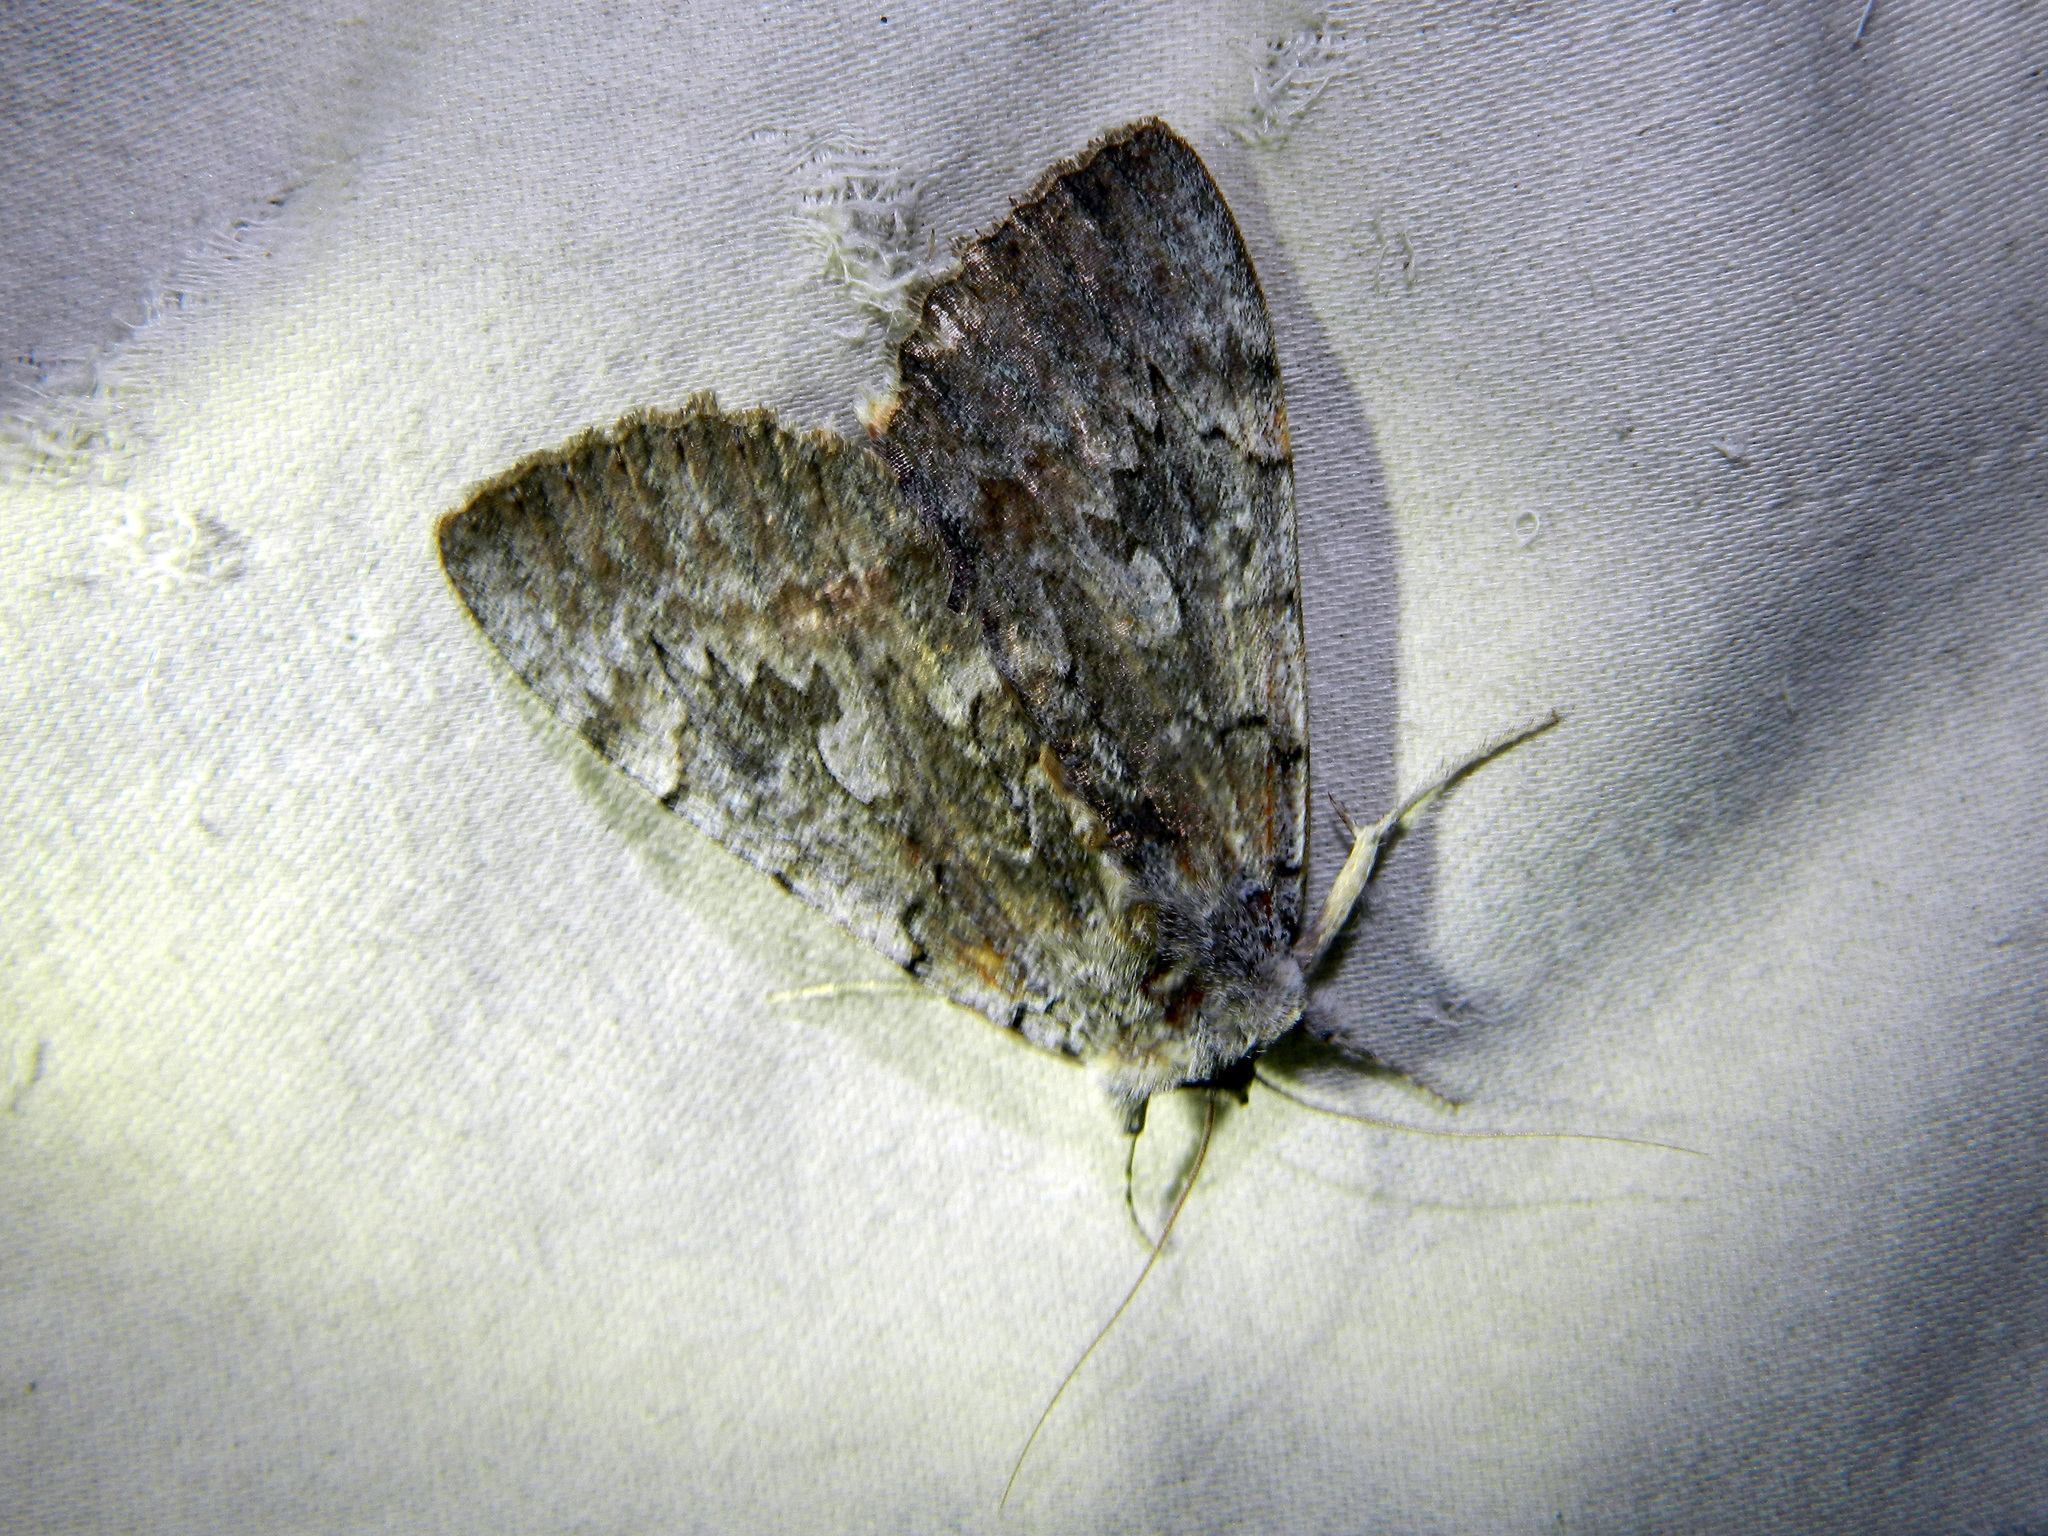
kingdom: Animalia
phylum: Arthropoda
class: Insecta
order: Lepidoptera
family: Erebidae
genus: Catocala
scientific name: Catocala concumbens
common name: Pink underwing
